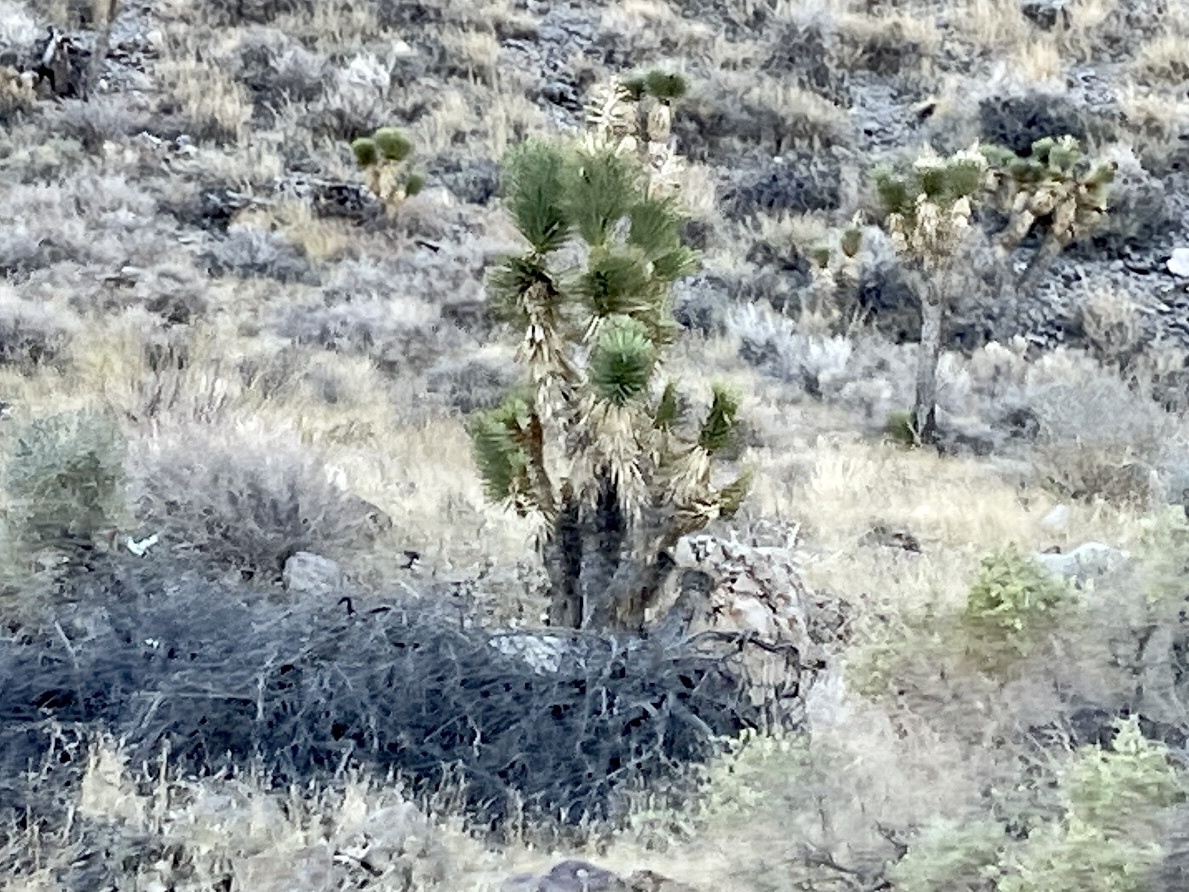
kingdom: Plantae
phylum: Tracheophyta
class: Liliopsida
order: Asparagales
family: Asparagaceae
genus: Yucca
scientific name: Yucca brevifolia
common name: Joshua tree
